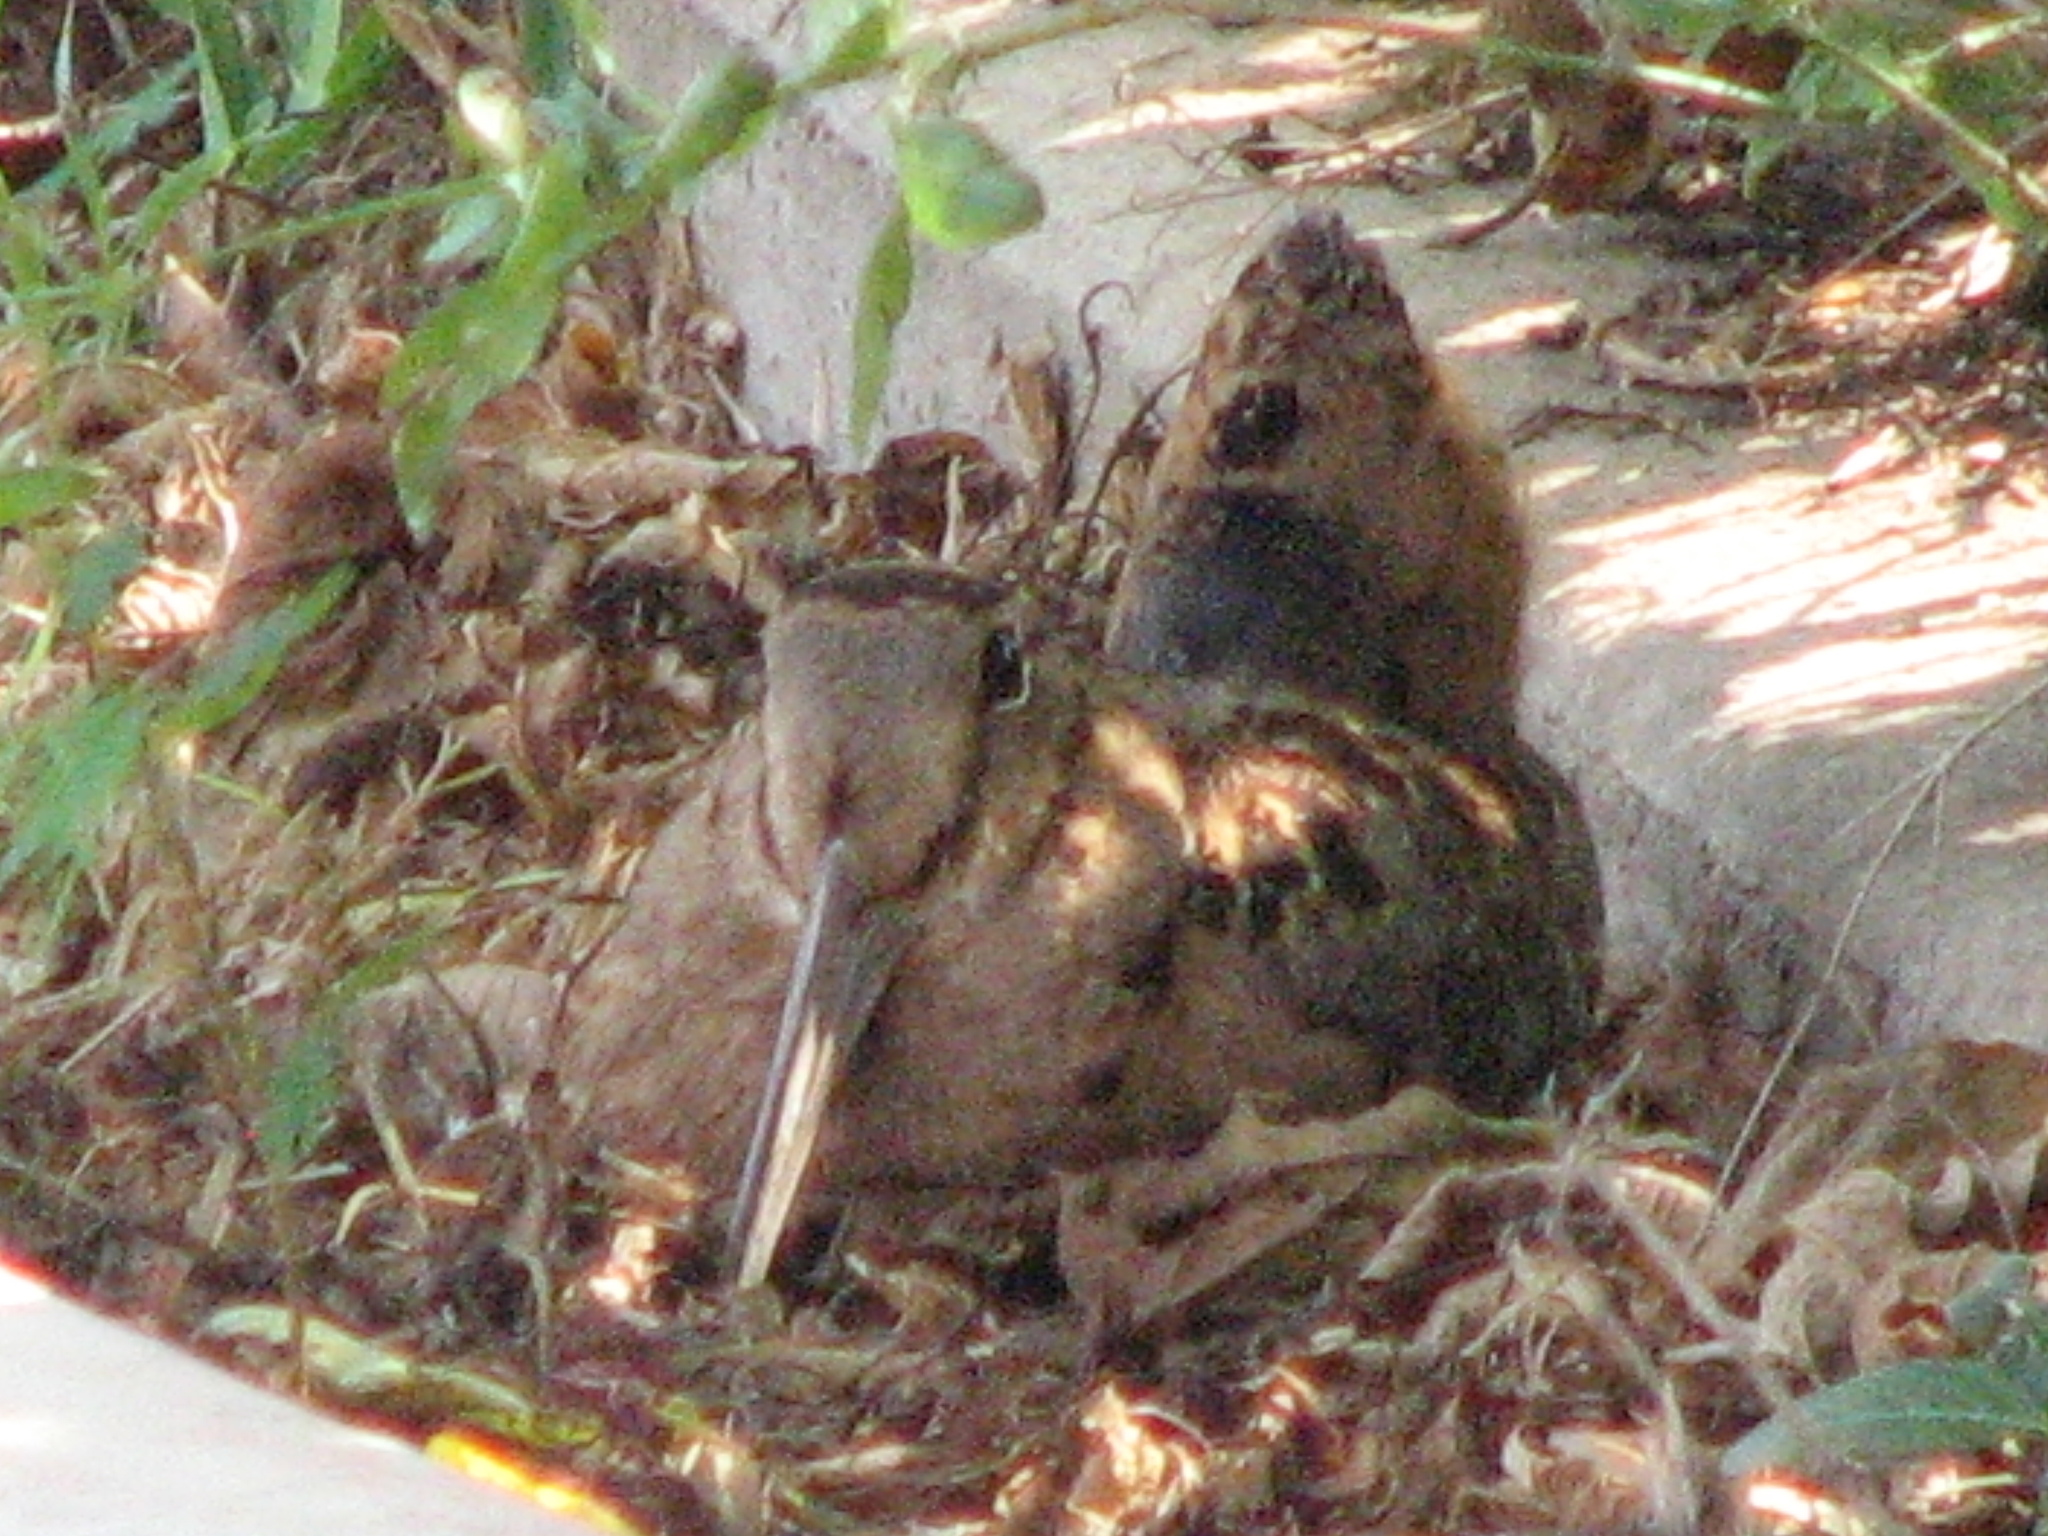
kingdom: Animalia
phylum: Chordata
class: Aves
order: Charadriiformes
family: Scolopacidae
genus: Scolopax
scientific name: Scolopax minor
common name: American woodcock
